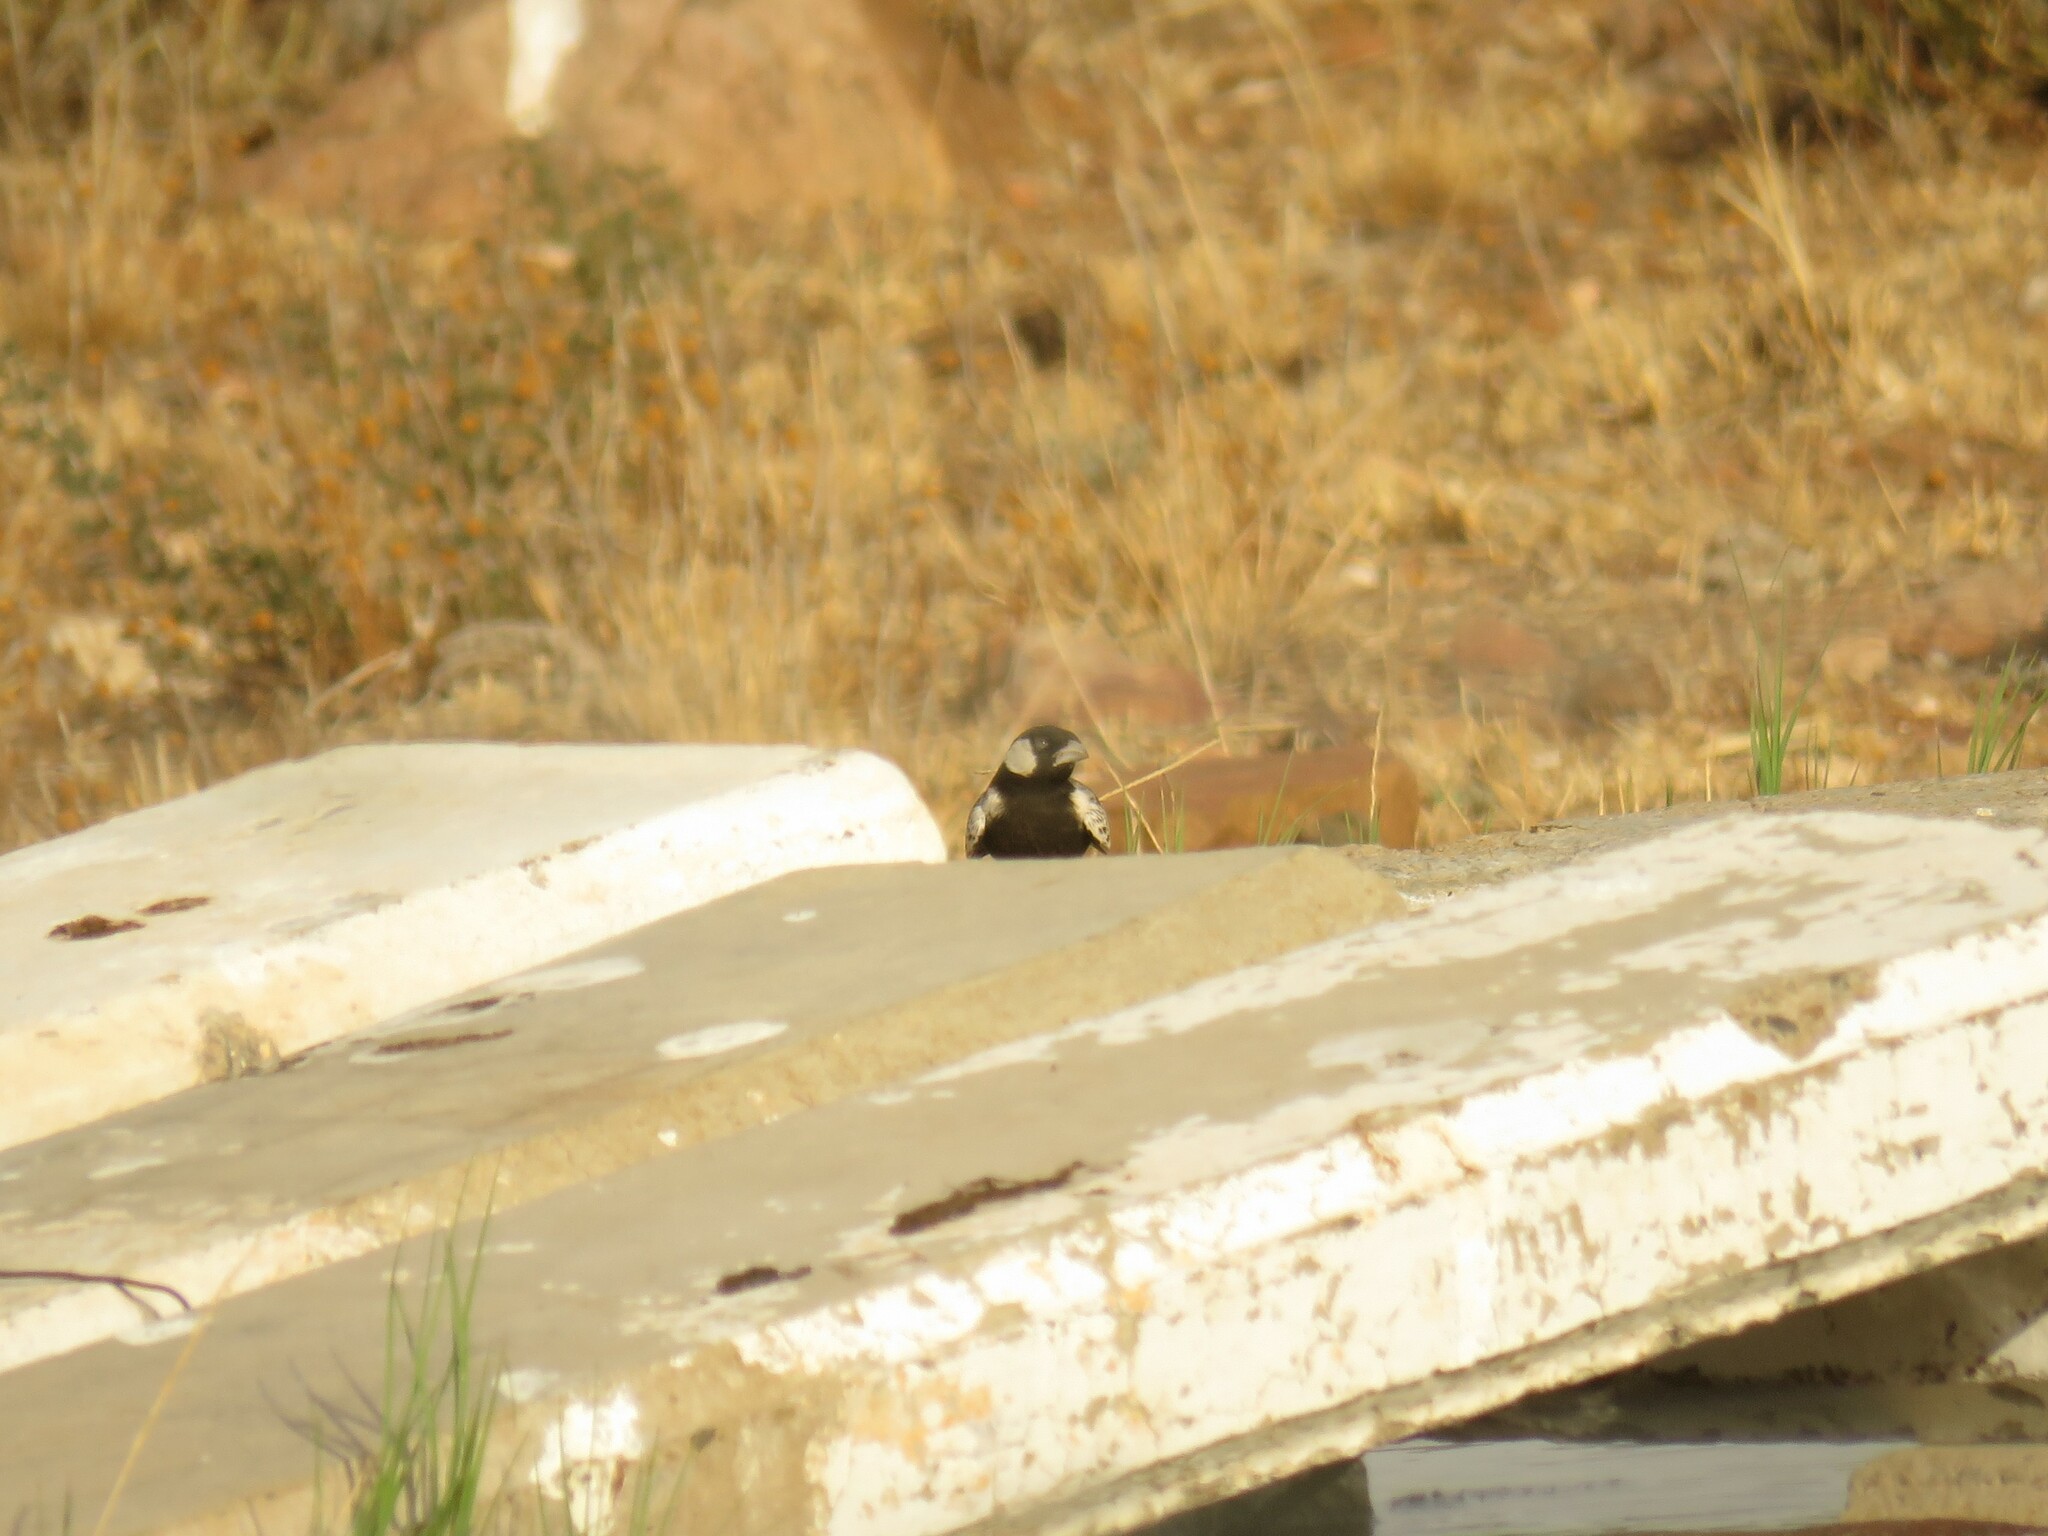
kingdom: Animalia
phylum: Chordata
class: Aves
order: Passeriformes
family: Alaudidae
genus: Eremopterix
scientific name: Eremopterix verticalis
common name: Grey-backed sparrow-lark
